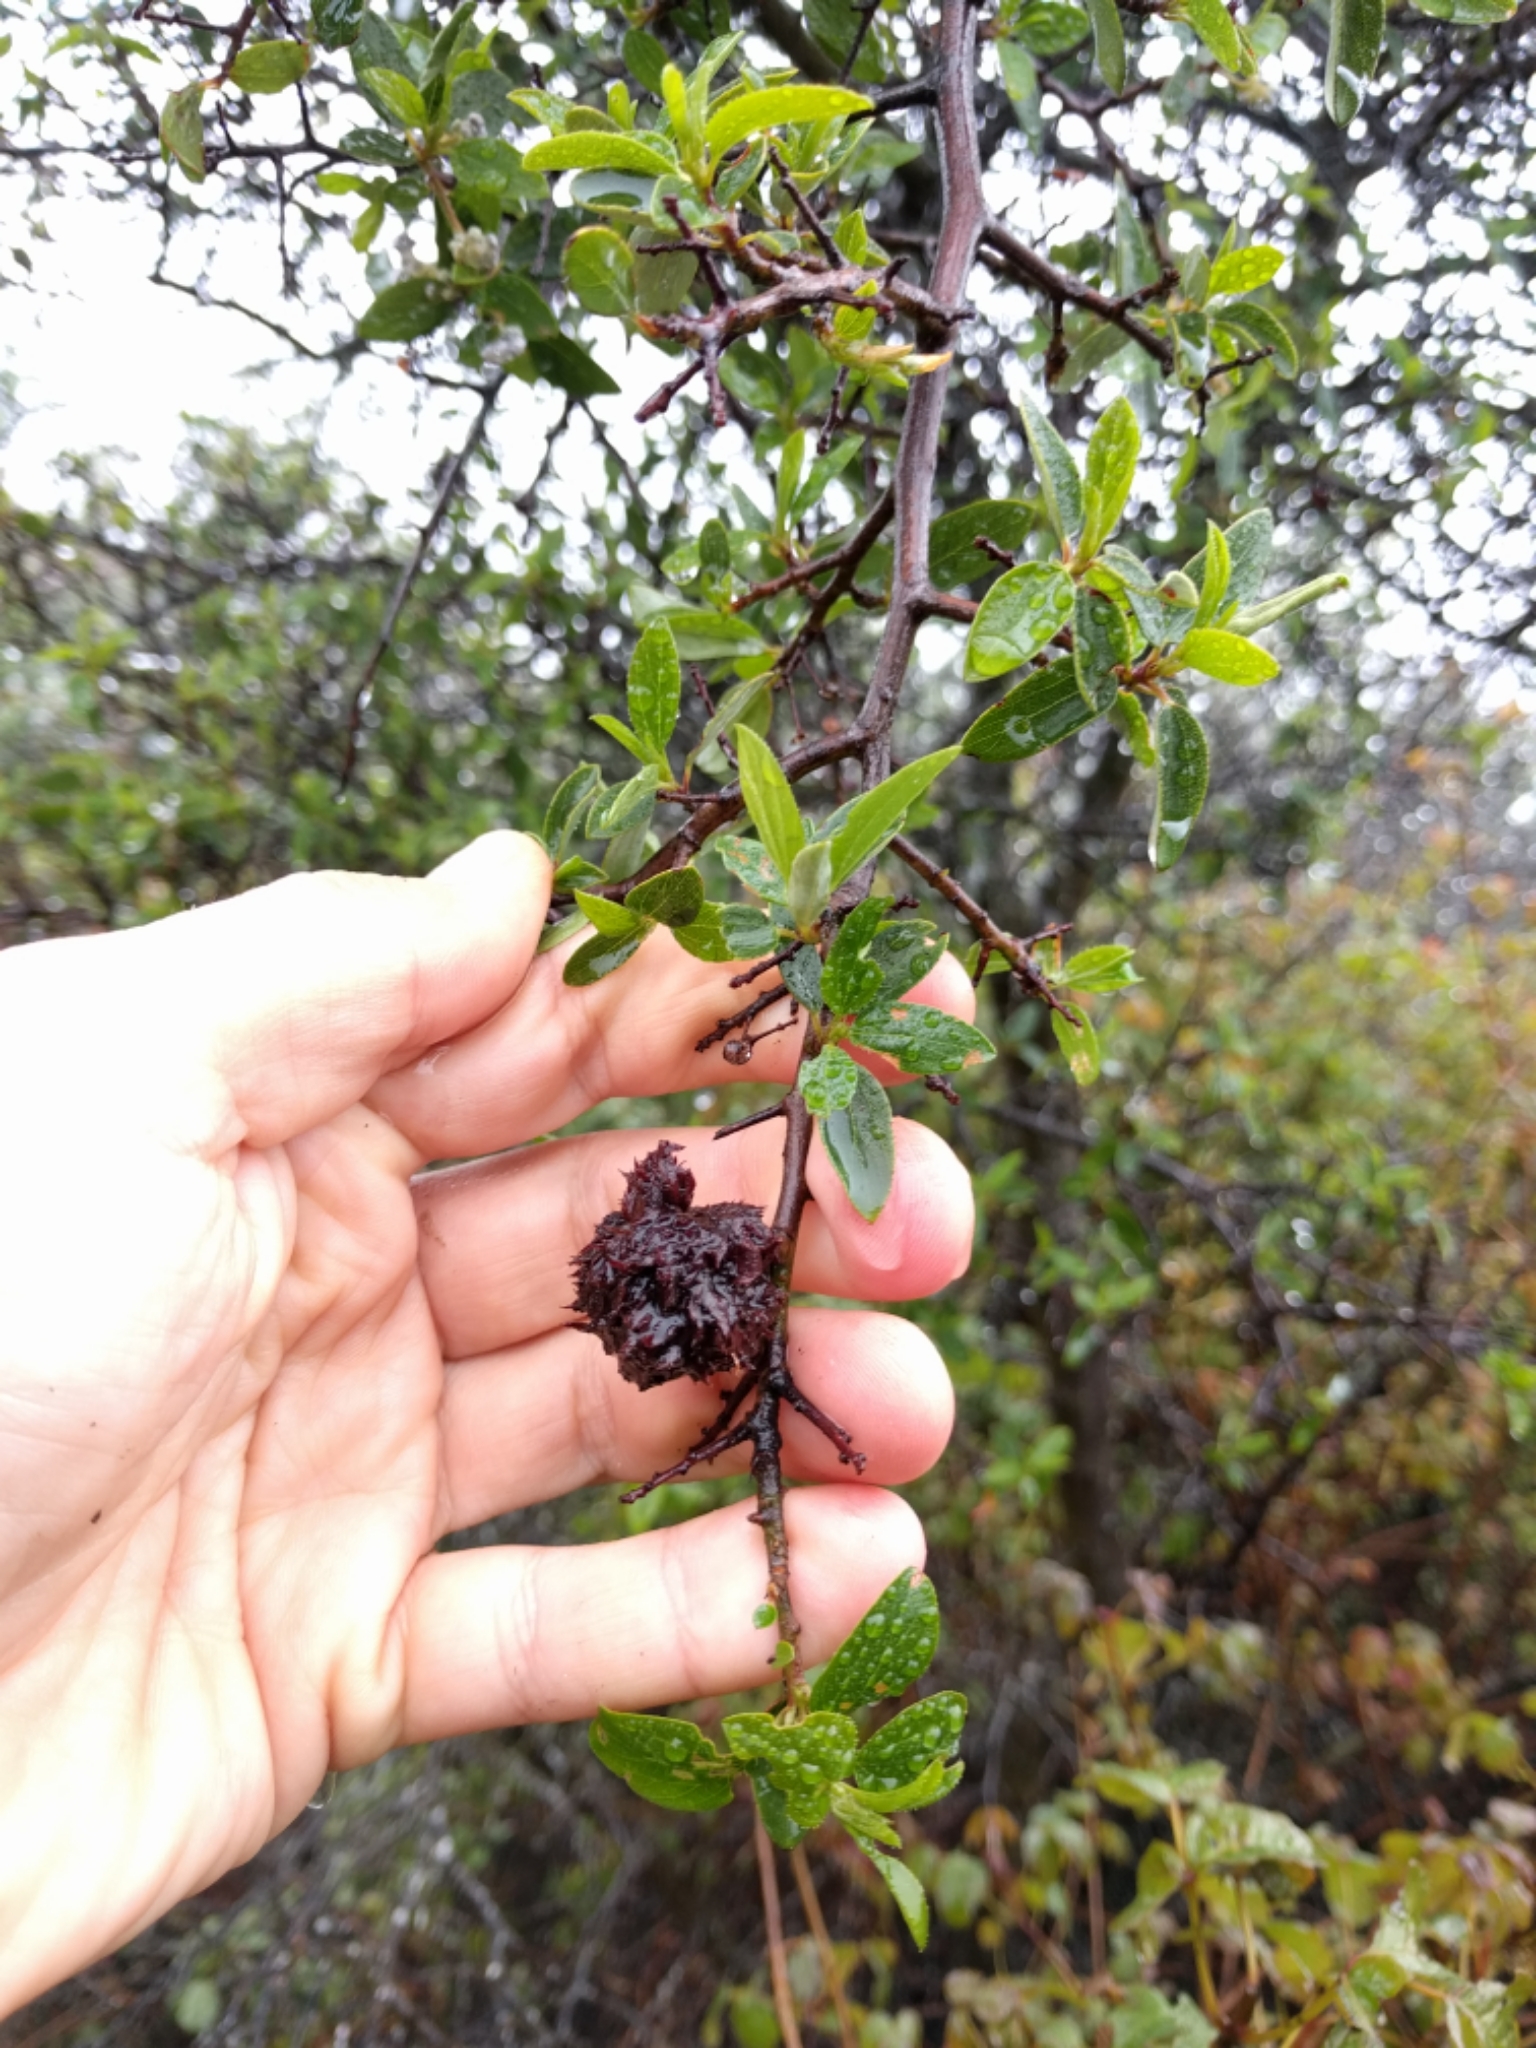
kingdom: Animalia
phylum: Arthropoda
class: Insecta
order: Diptera
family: Cecidomyiidae
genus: Asphondylia
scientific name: Asphondylia ceanothi
